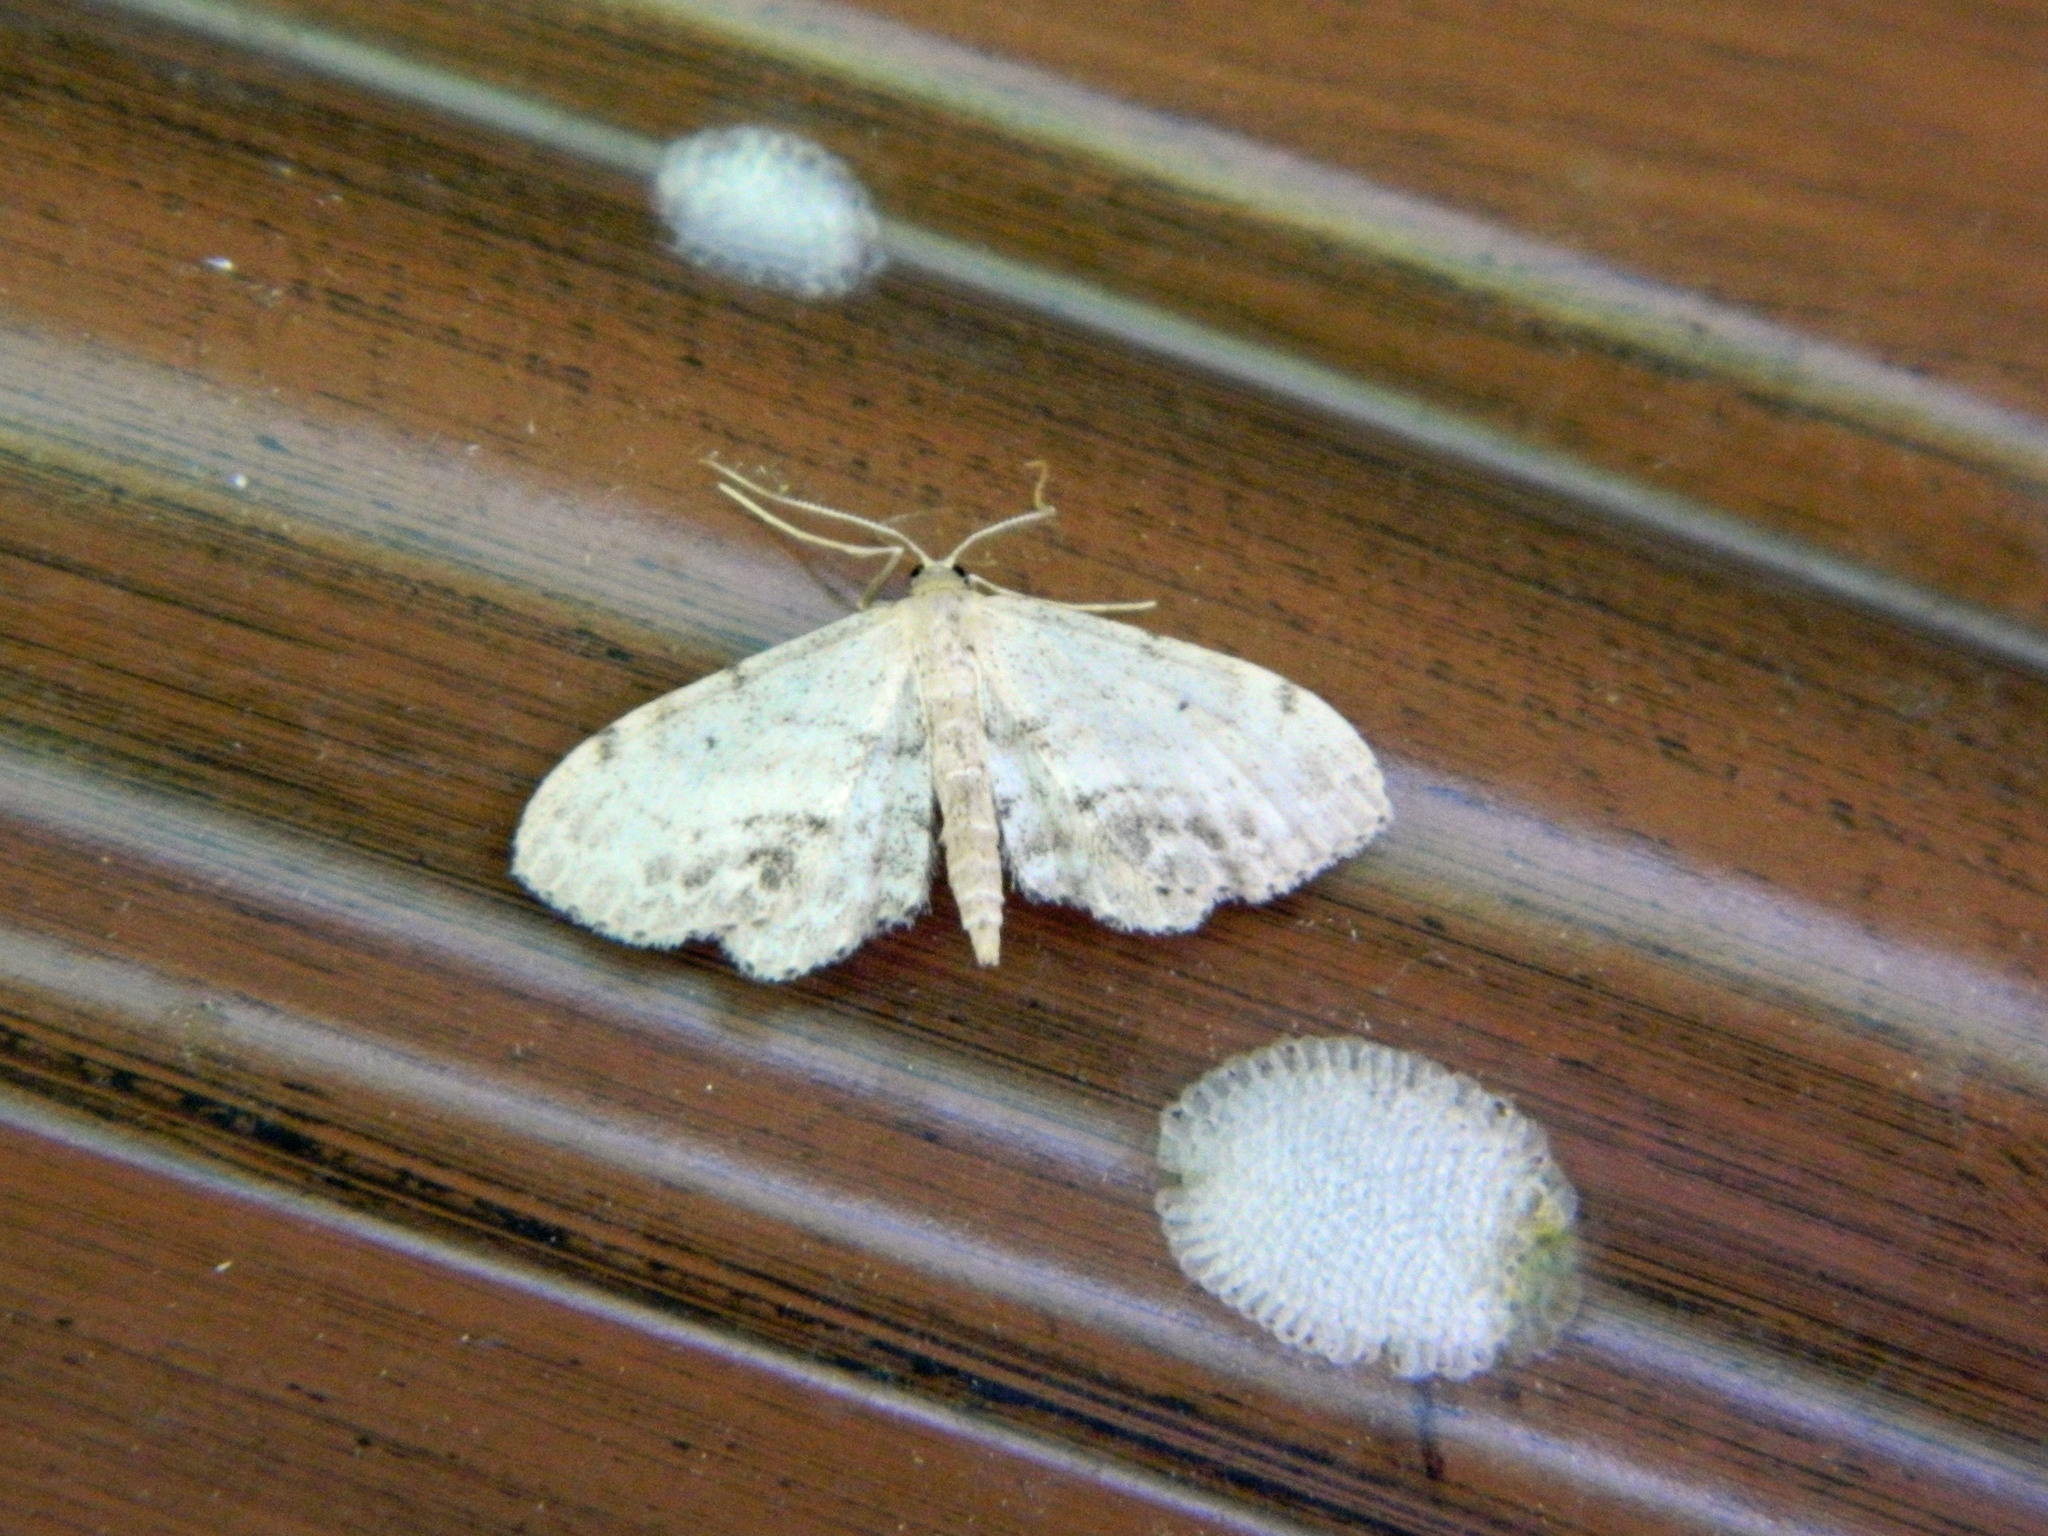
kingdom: Animalia
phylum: Arthropoda
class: Insecta
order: Lepidoptera
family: Geometridae
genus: Idaea
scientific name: Idaea dimidiata
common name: Single-dotted wave
